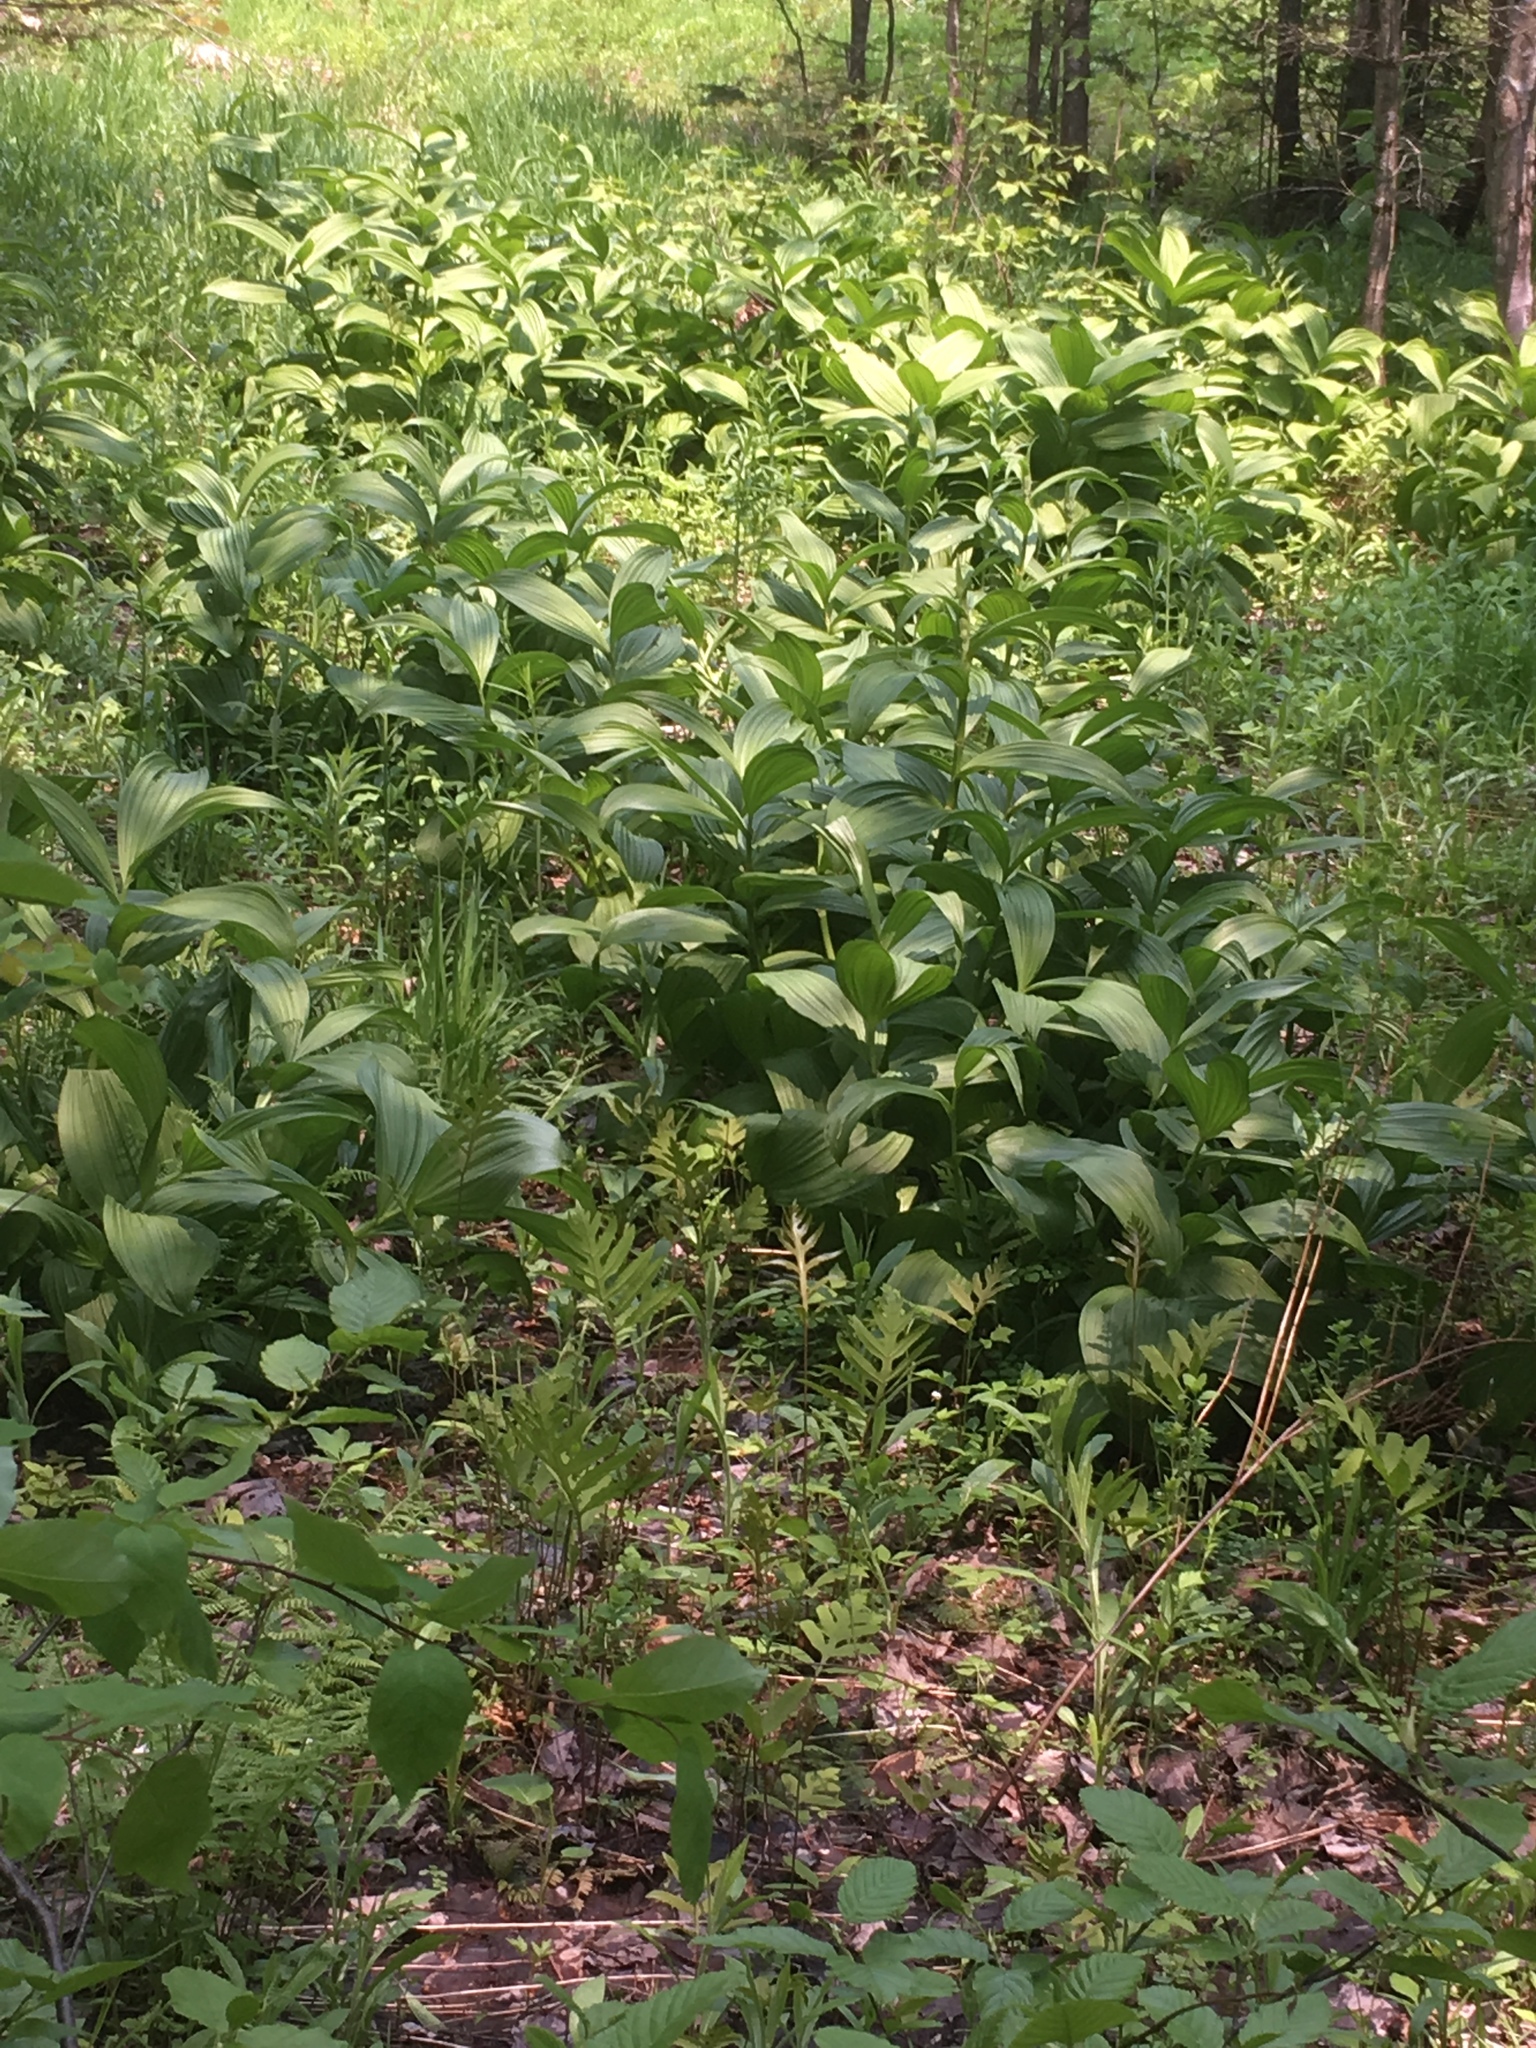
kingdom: Plantae
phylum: Tracheophyta
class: Liliopsida
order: Liliales
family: Melanthiaceae
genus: Veratrum
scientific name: Veratrum viride
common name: American false hellebore
